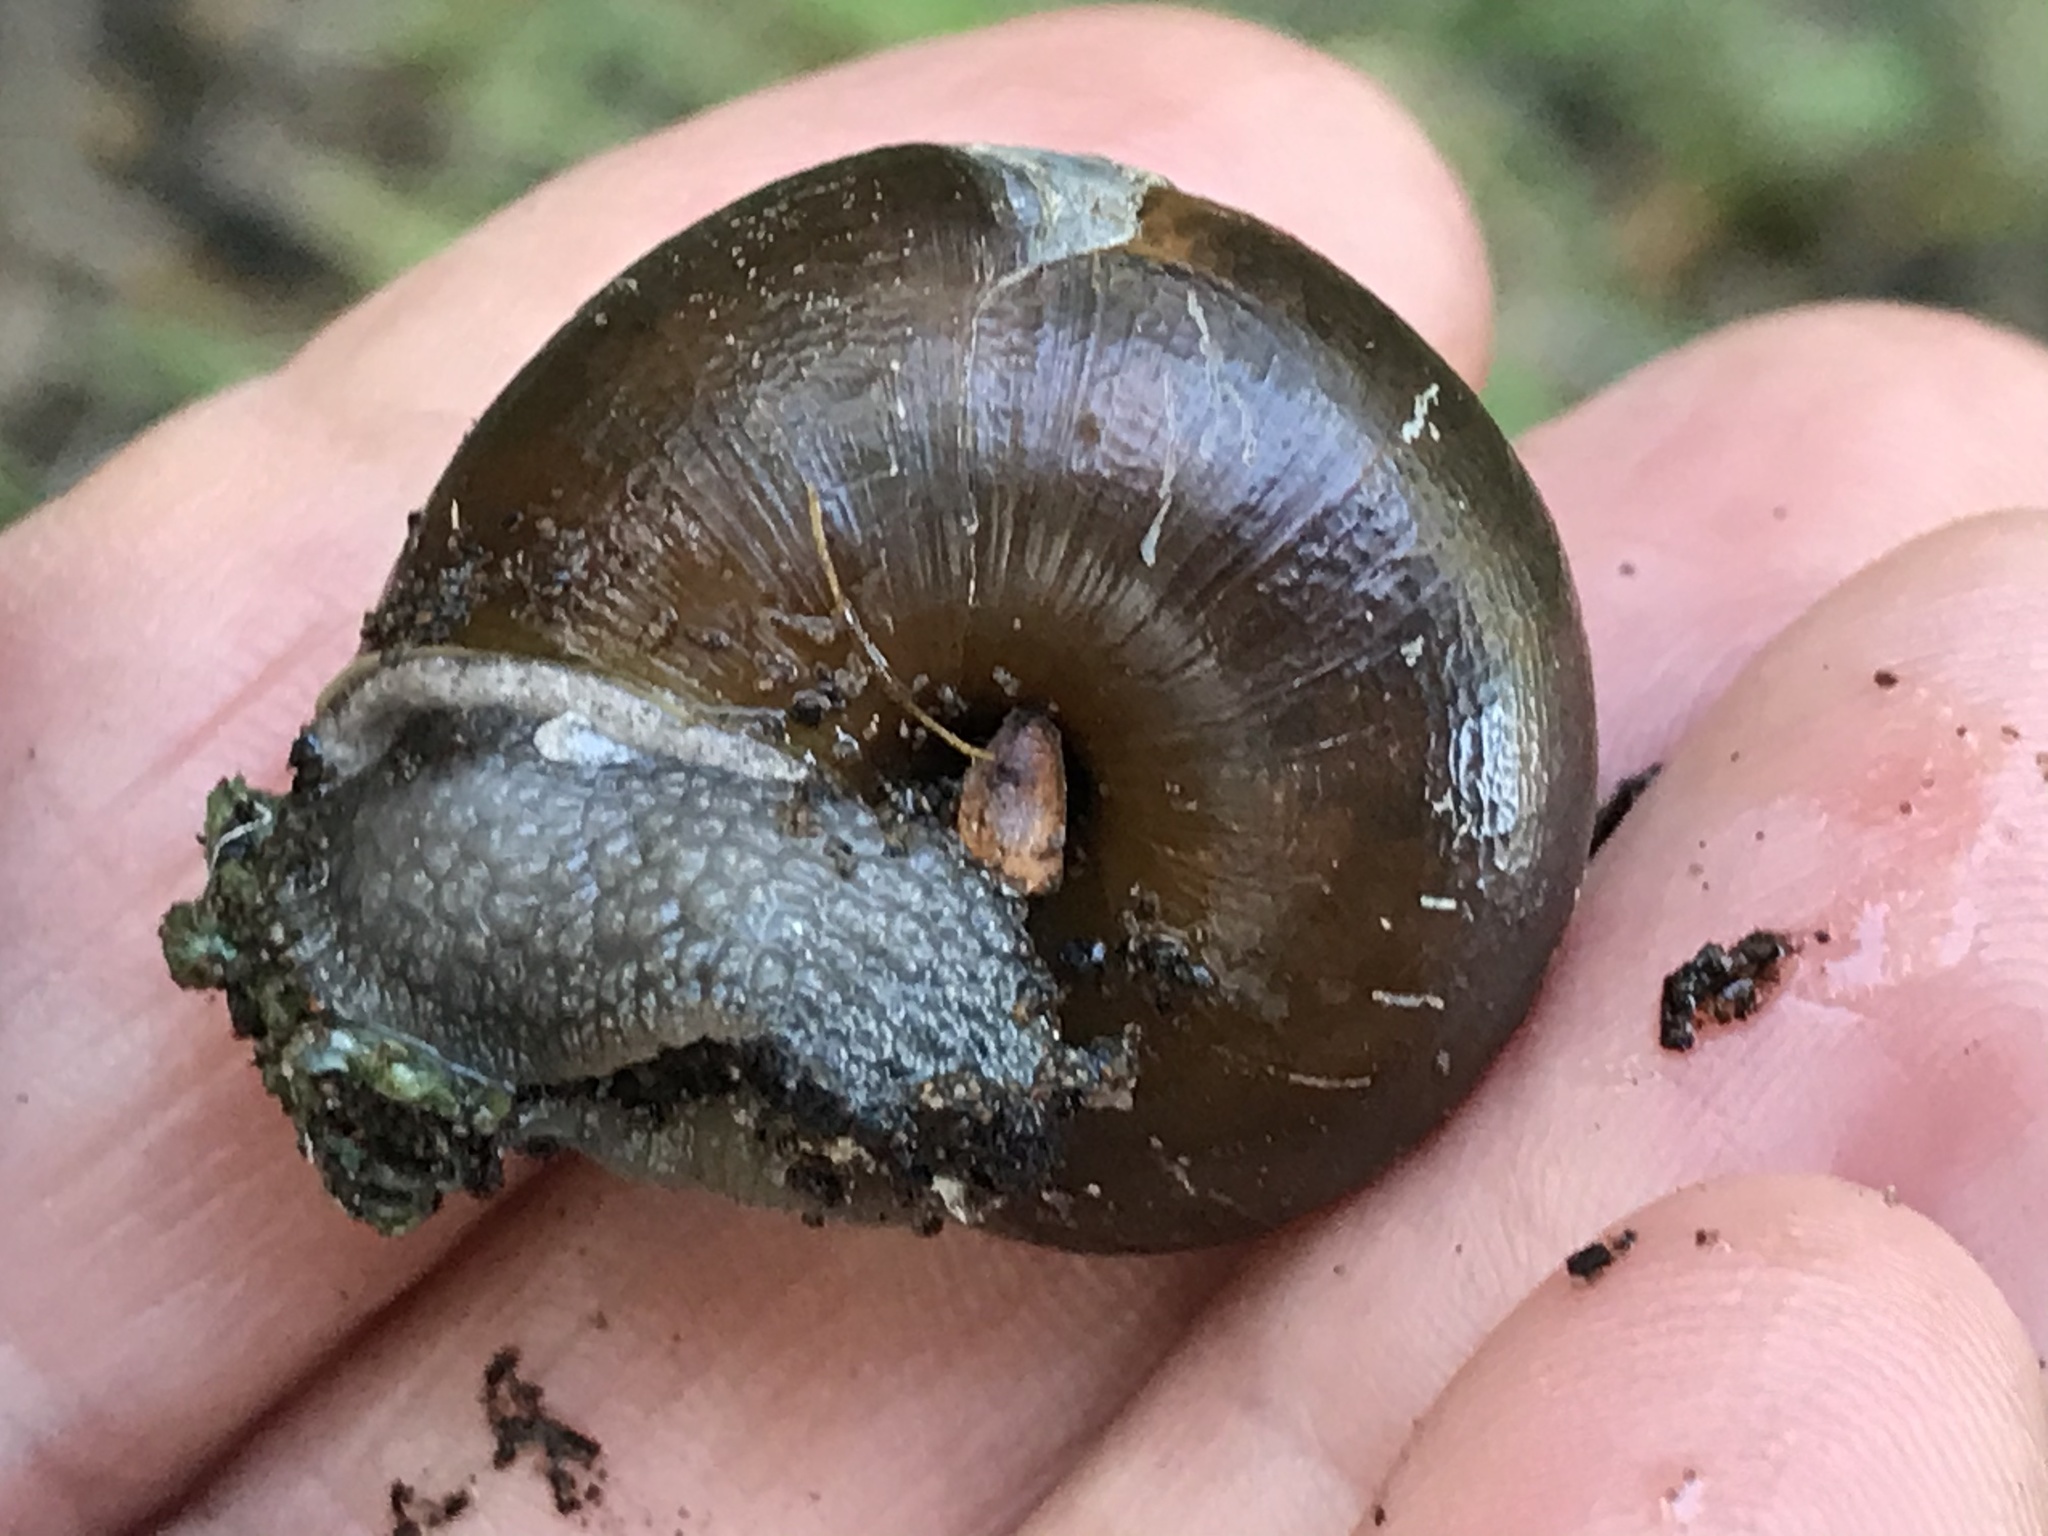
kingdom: Animalia
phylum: Mollusca
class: Gastropoda
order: Stylommatophora
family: Xanthonychidae
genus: Helminthoglypta
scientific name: Helminthoglypta umbilicata
